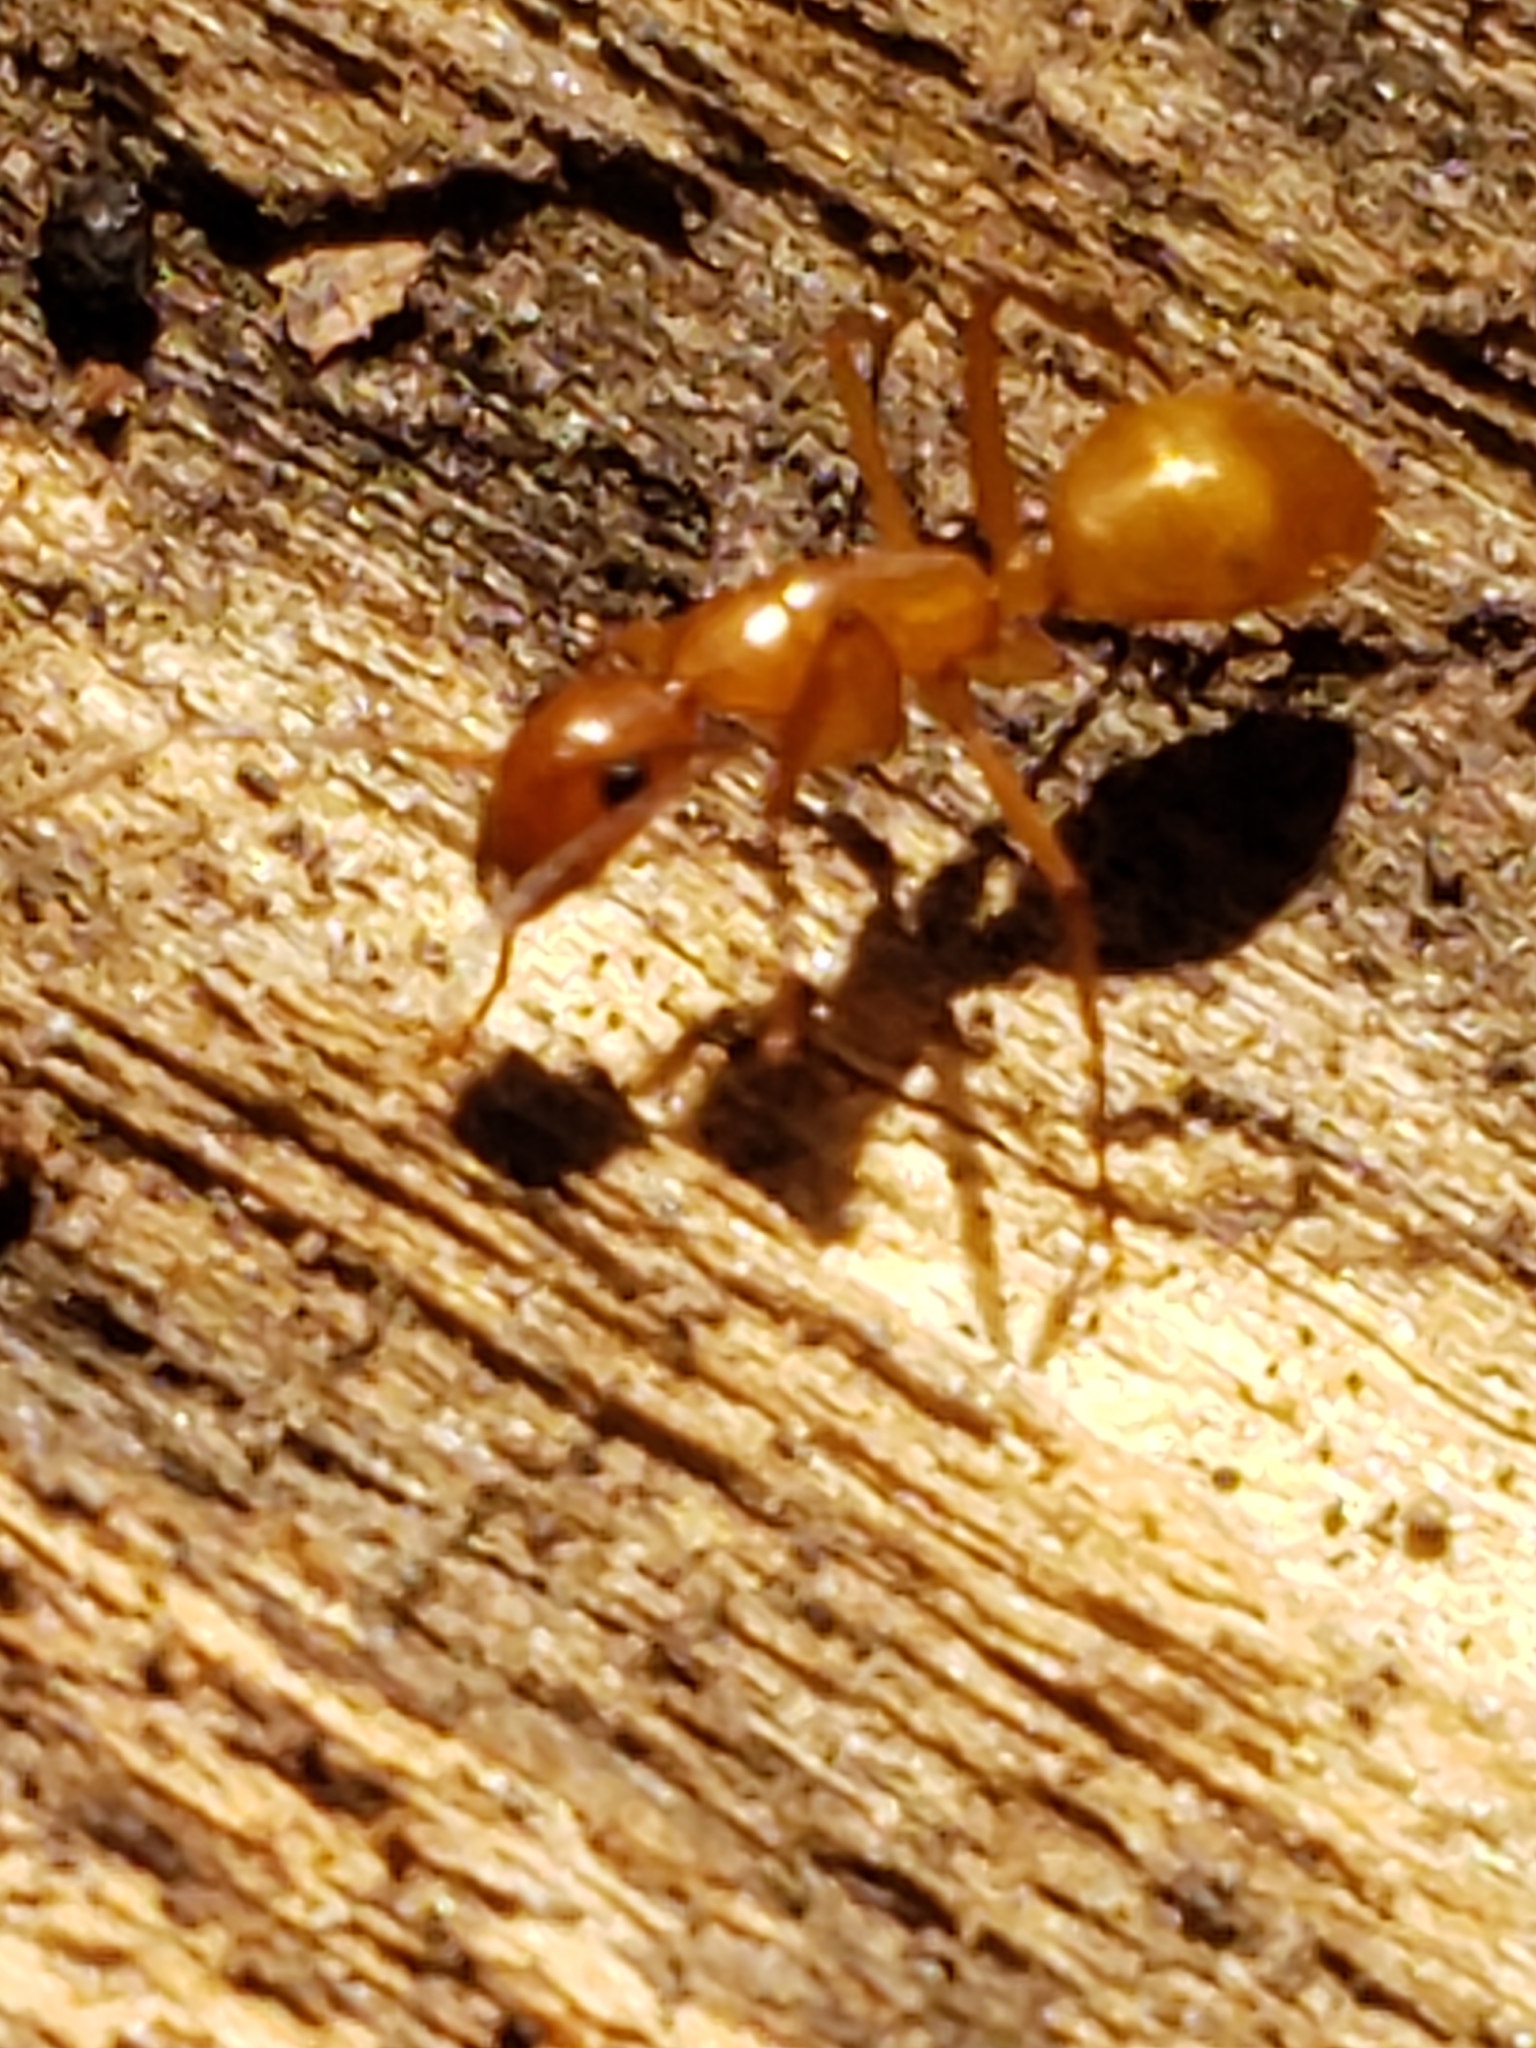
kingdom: Animalia
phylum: Arthropoda
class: Insecta
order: Hymenoptera
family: Formicidae
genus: Camponotus
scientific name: Camponotus castaneus
